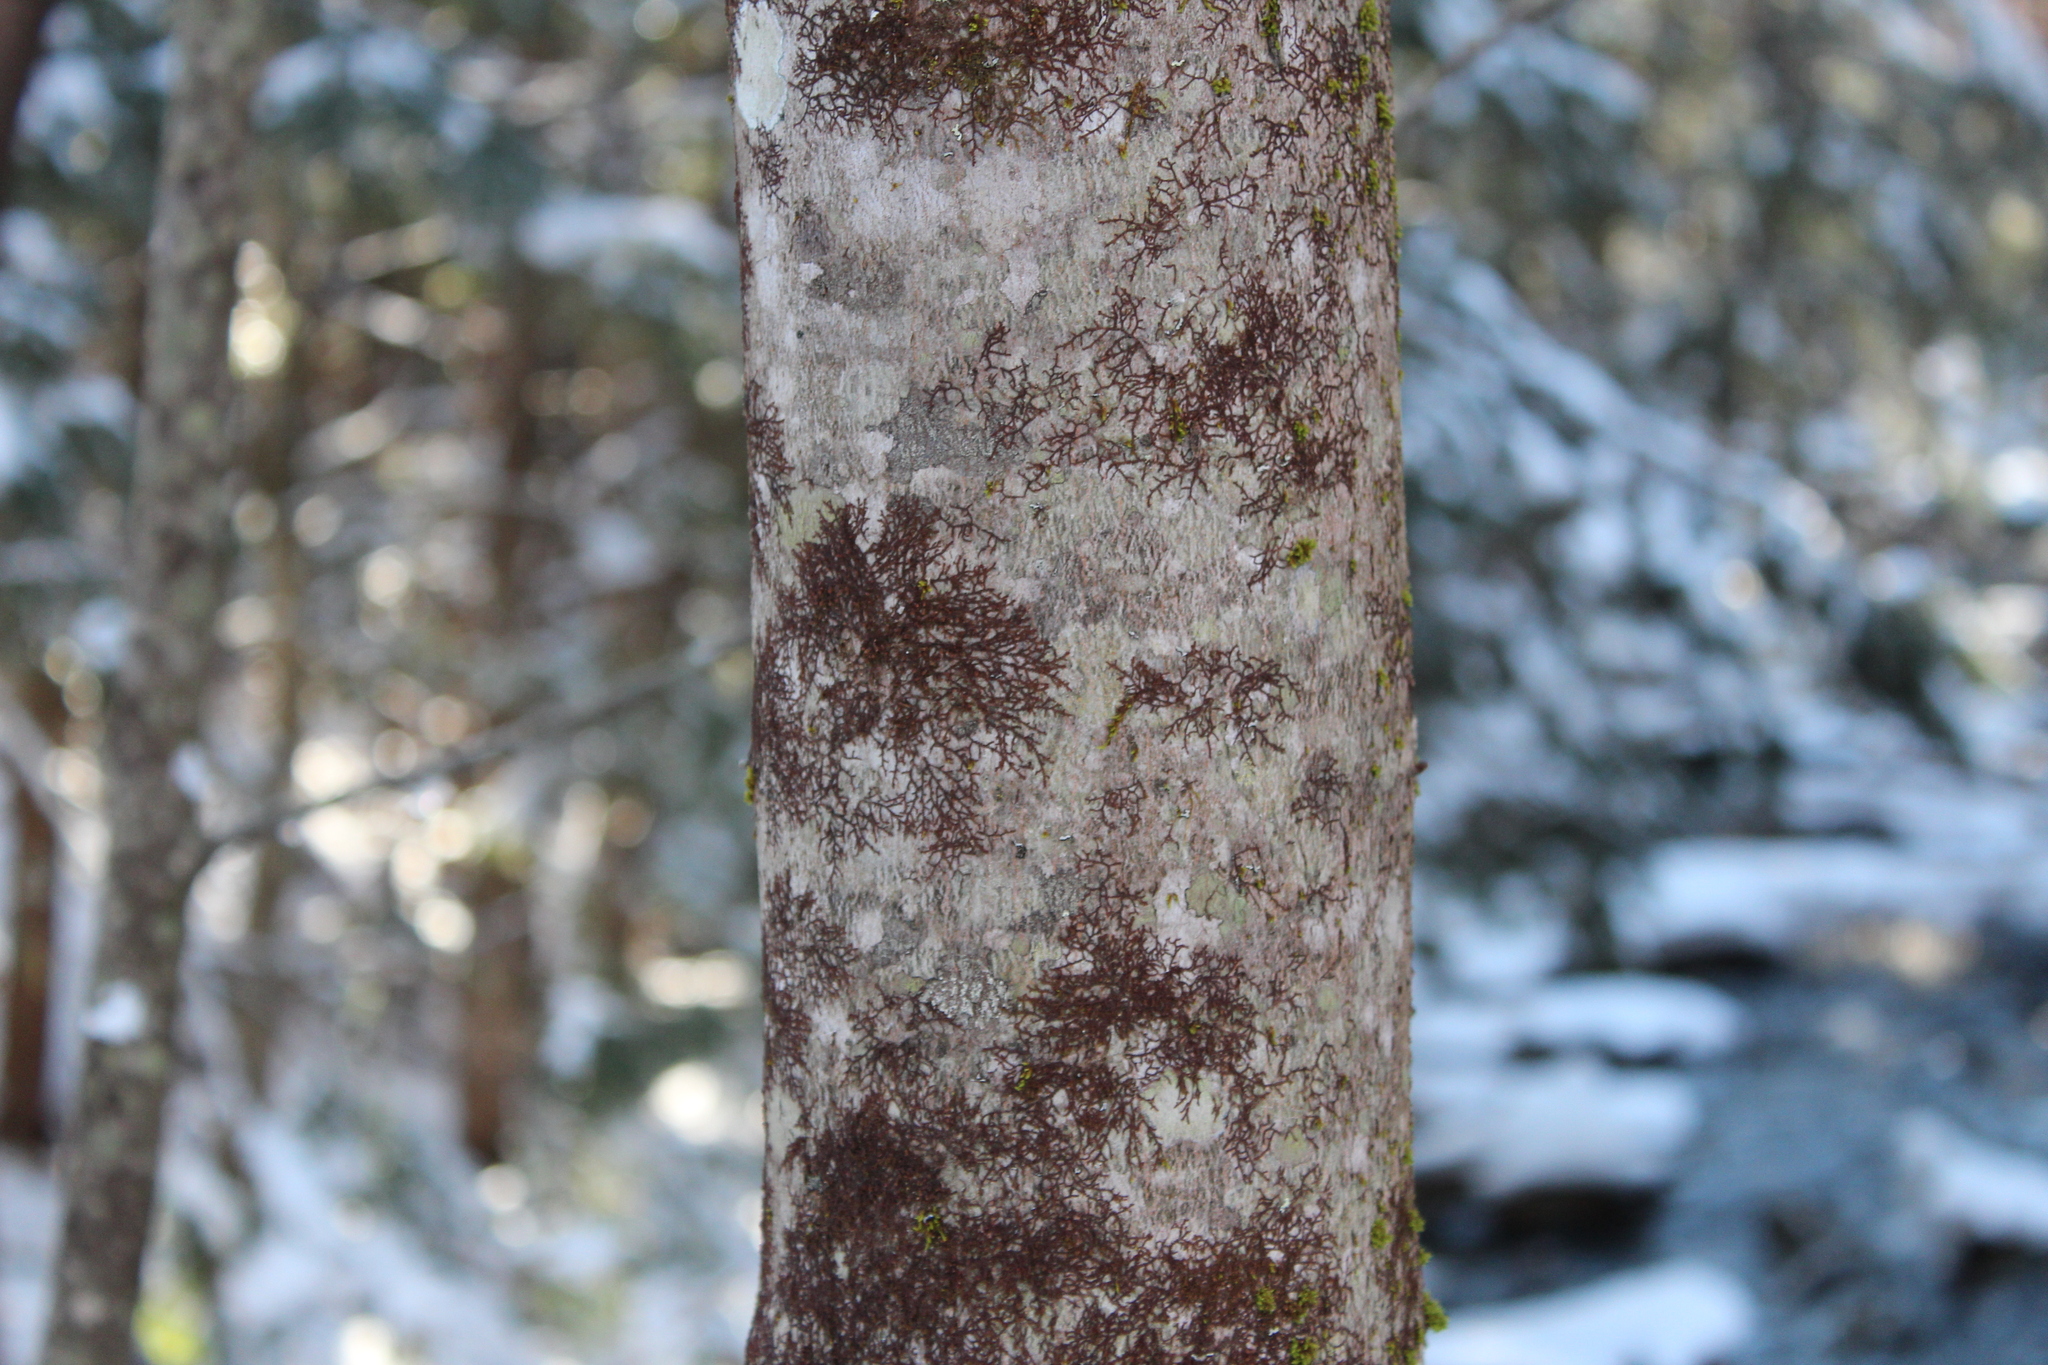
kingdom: Plantae
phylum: Marchantiophyta
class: Jungermanniopsida
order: Porellales
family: Frullaniaceae
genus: Frullania
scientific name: Frullania eboracensis
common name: New york scalewort
